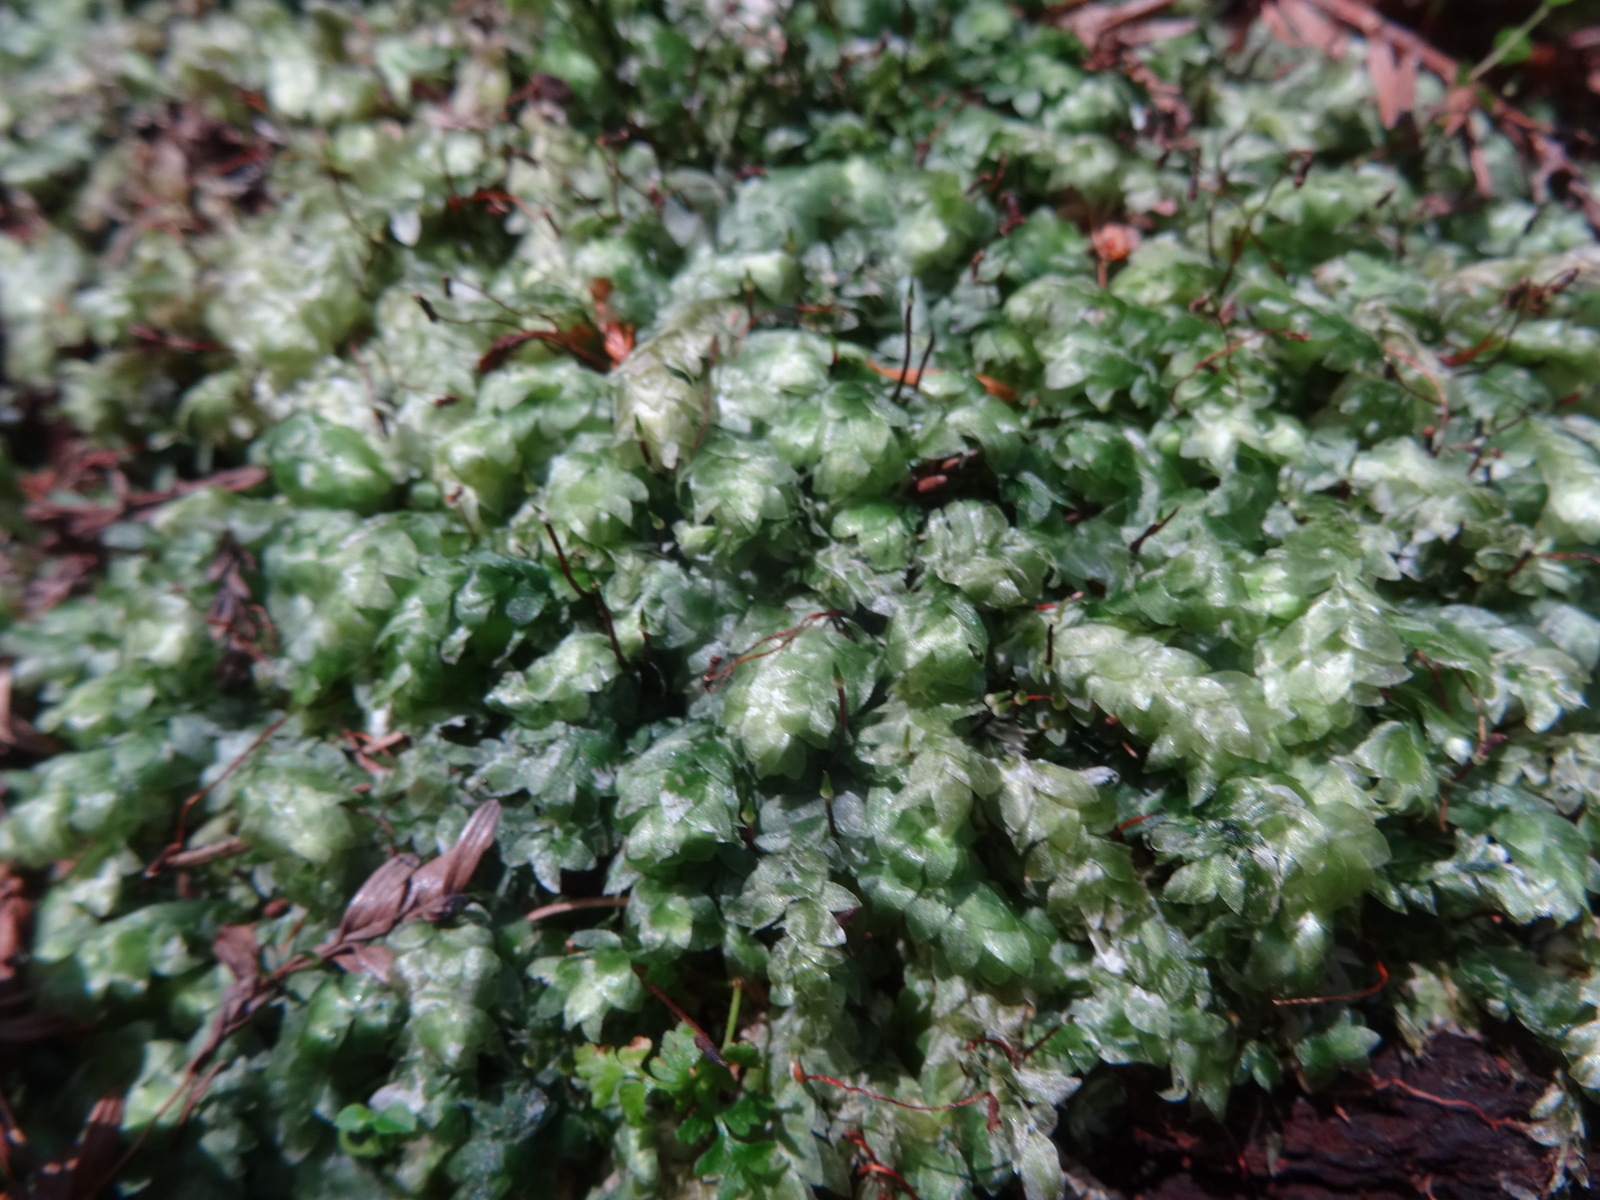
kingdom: Plantae
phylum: Bryophyta
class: Bryopsida
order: Hookeriales
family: Hookeriaceae
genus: Hookeria
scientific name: Hookeria lucens
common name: Shining hookeria
